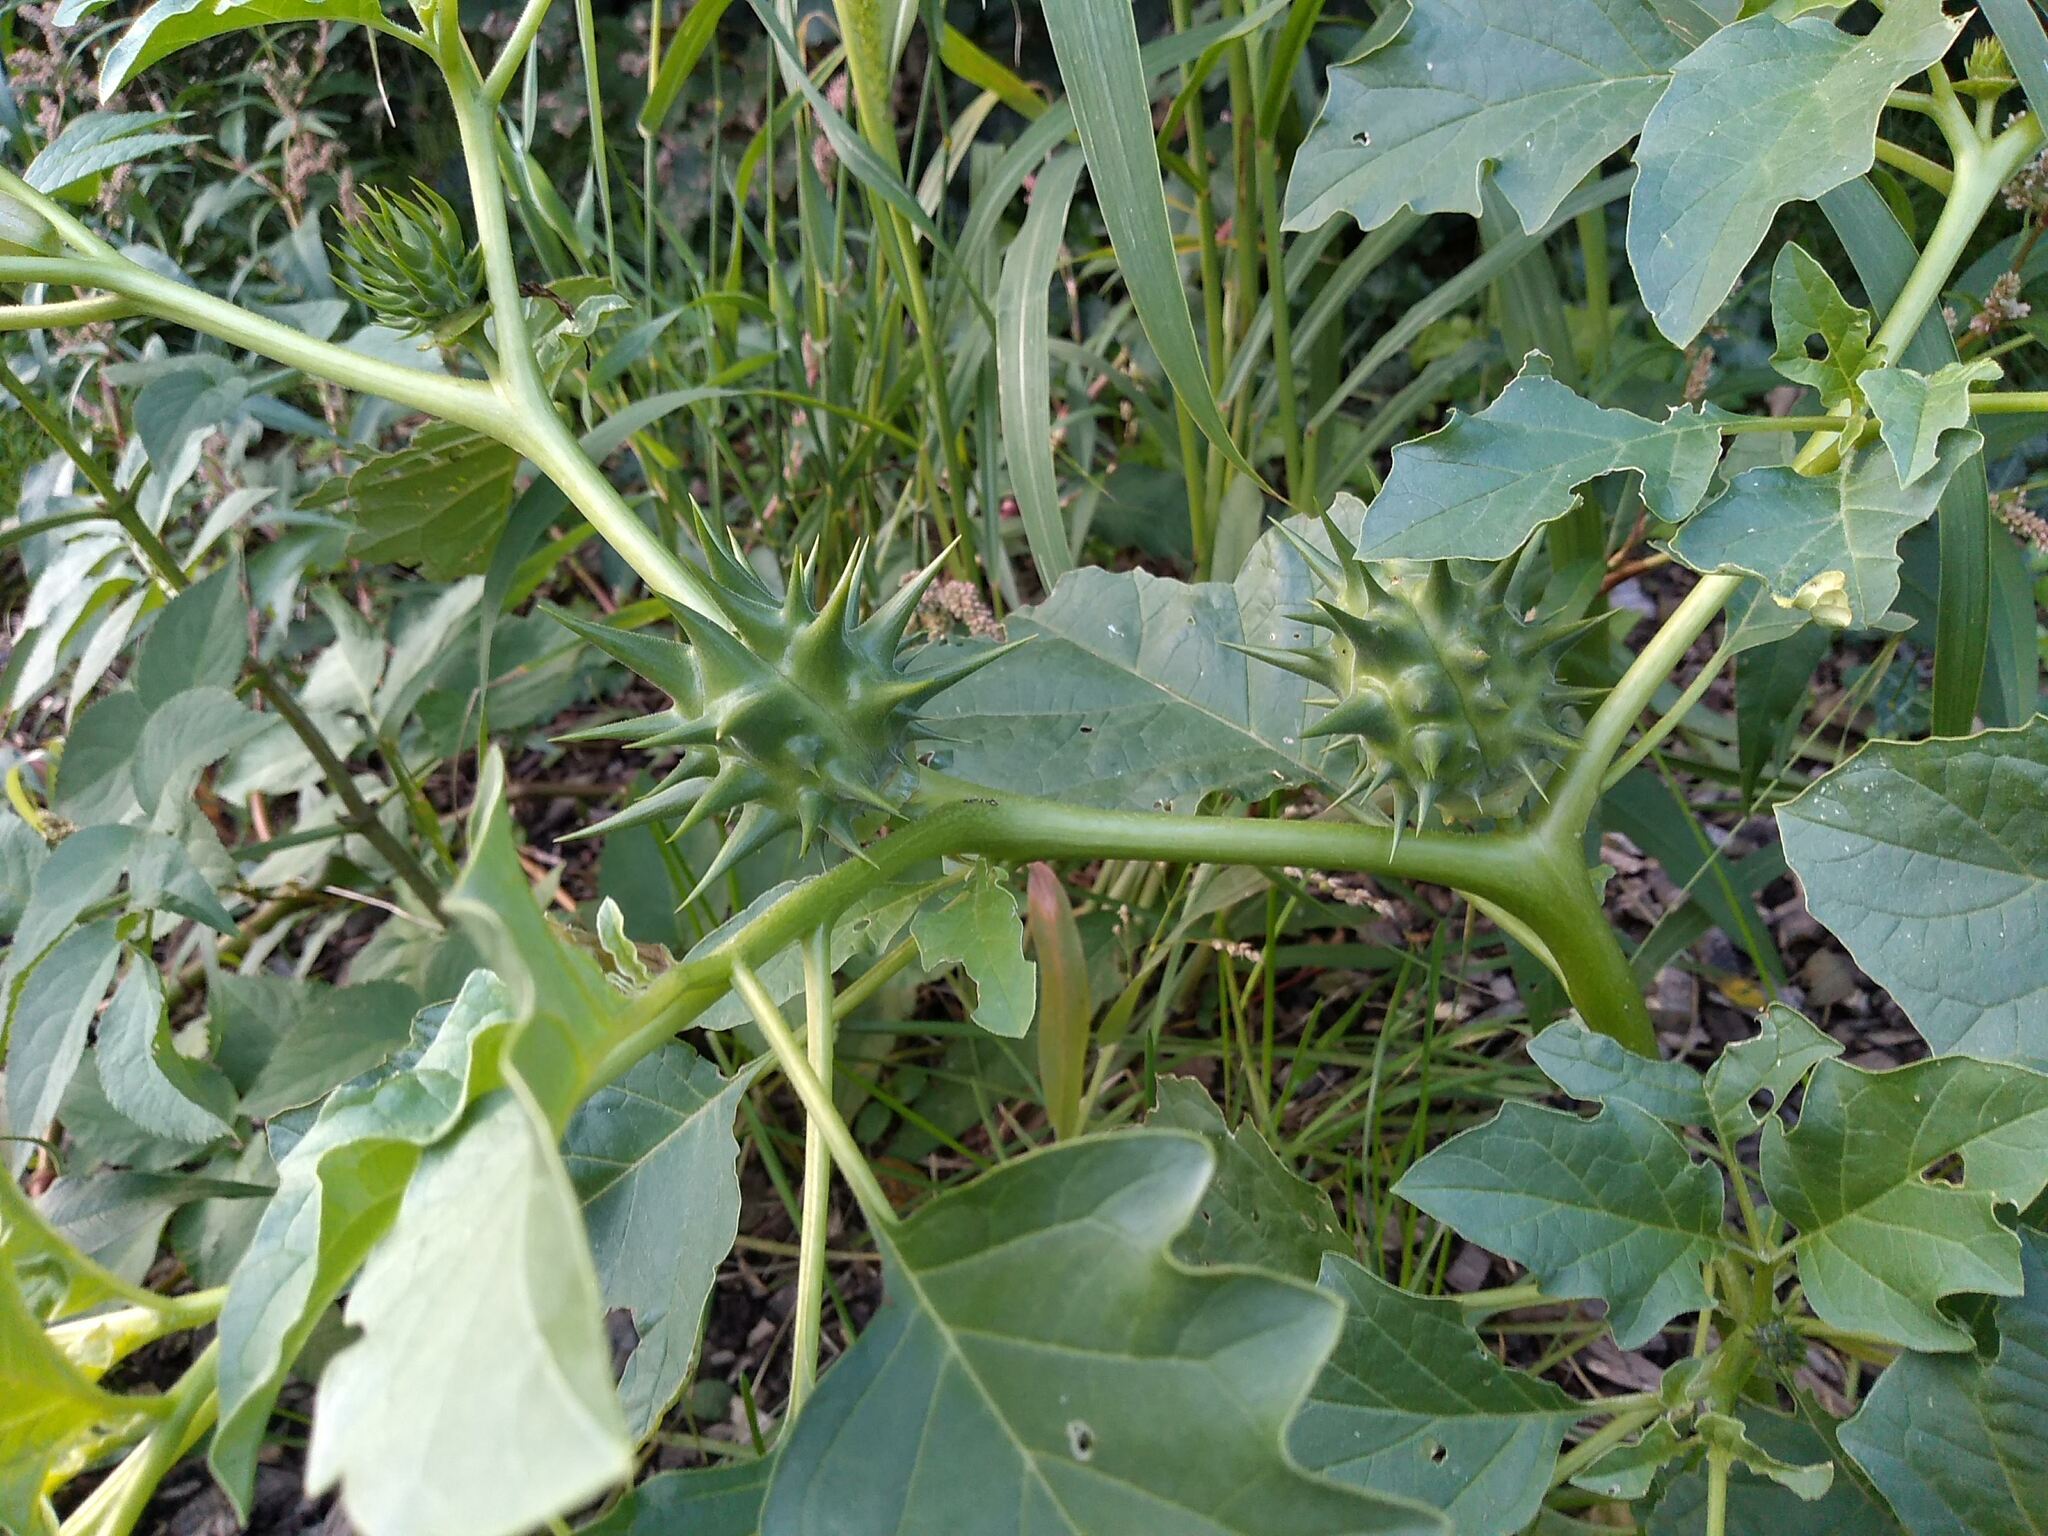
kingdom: Plantae
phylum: Tracheophyta
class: Magnoliopsida
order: Solanales
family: Solanaceae
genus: Datura
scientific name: Datura ferox
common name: Angel's-trumpets
